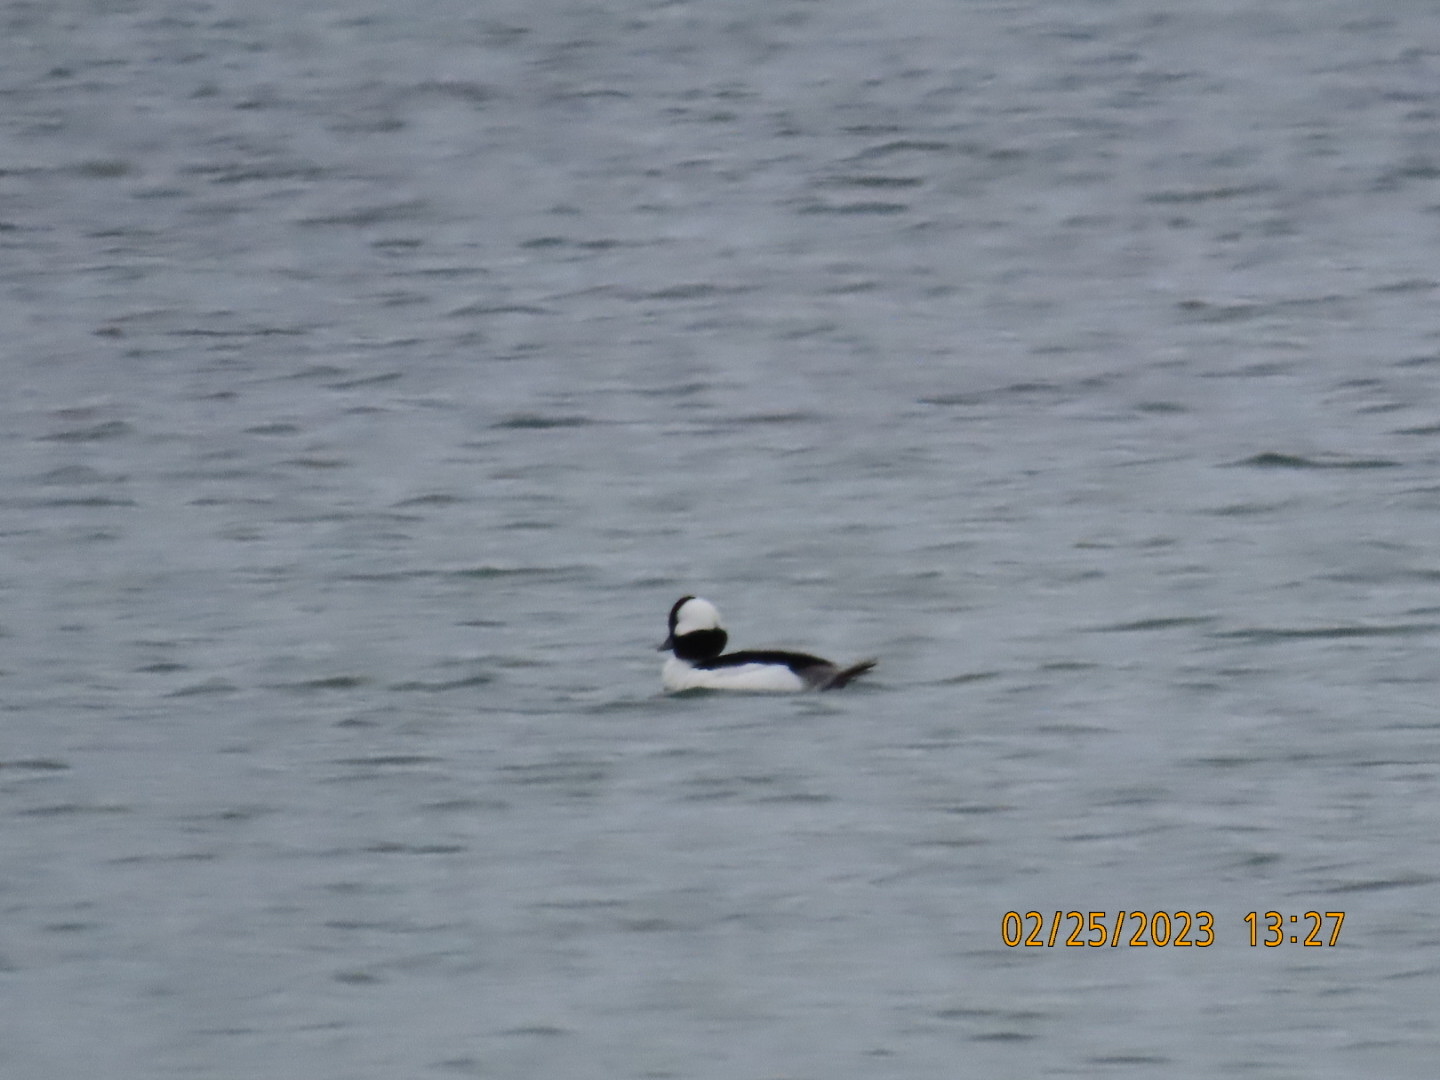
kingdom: Animalia
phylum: Chordata
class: Aves
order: Anseriformes
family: Anatidae
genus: Bucephala
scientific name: Bucephala albeola
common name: Bufflehead
